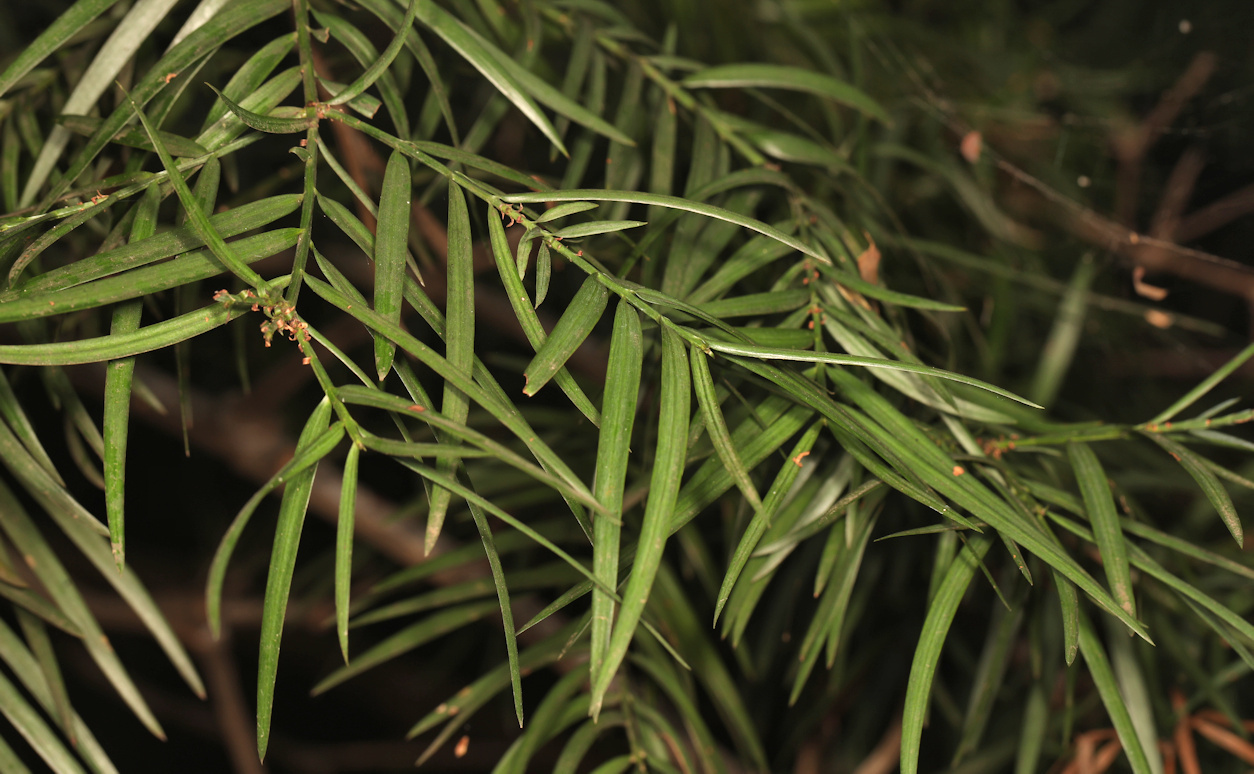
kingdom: Plantae
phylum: Tracheophyta
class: Pinopsida
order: Pinales
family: Podocarpaceae
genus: Afrocarpus
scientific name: Afrocarpus falcatus
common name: Bastard yellowwood
